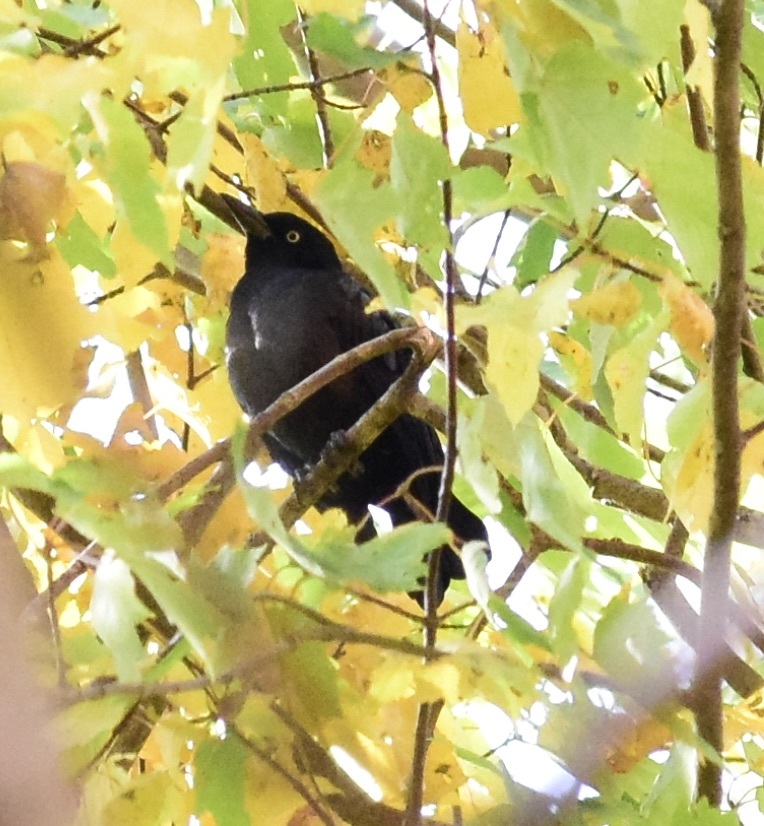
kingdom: Animalia
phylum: Chordata
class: Aves
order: Passeriformes
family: Icteridae
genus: Quiscalus
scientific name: Quiscalus quiscula
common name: Common grackle
